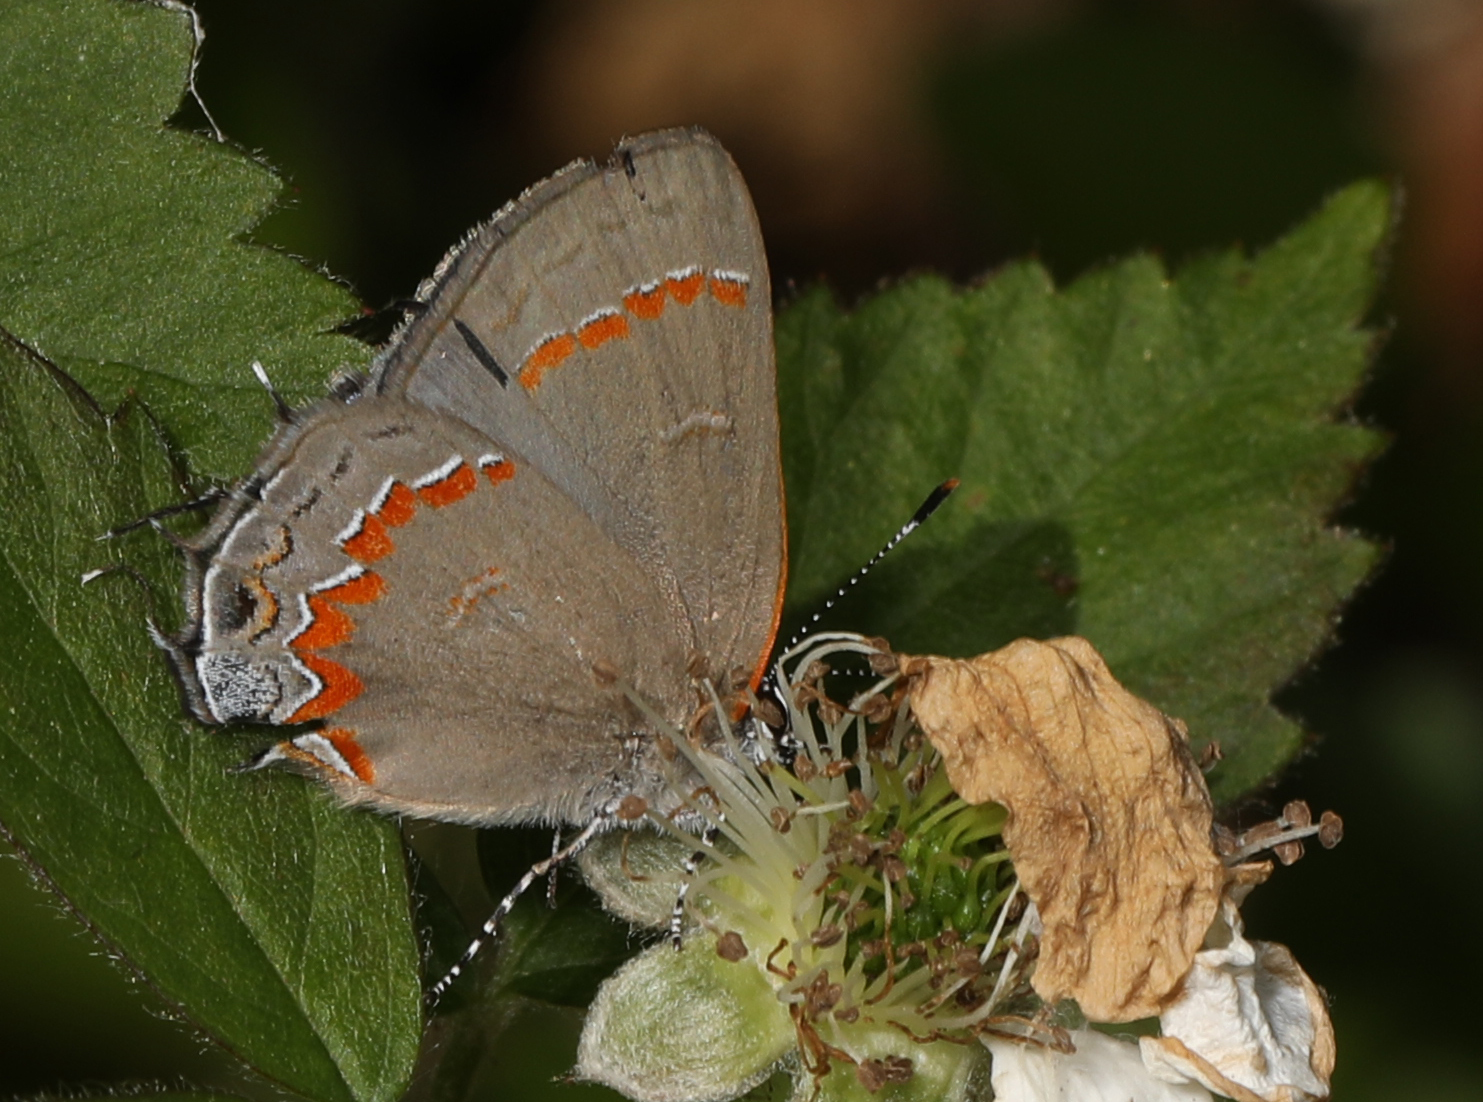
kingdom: Animalia
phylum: Arthropoda
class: Insecta
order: Lepidoptera
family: Lycaenidae
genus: Calycopis
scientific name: Calycopis cecrops
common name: Red-banded hairstreak
